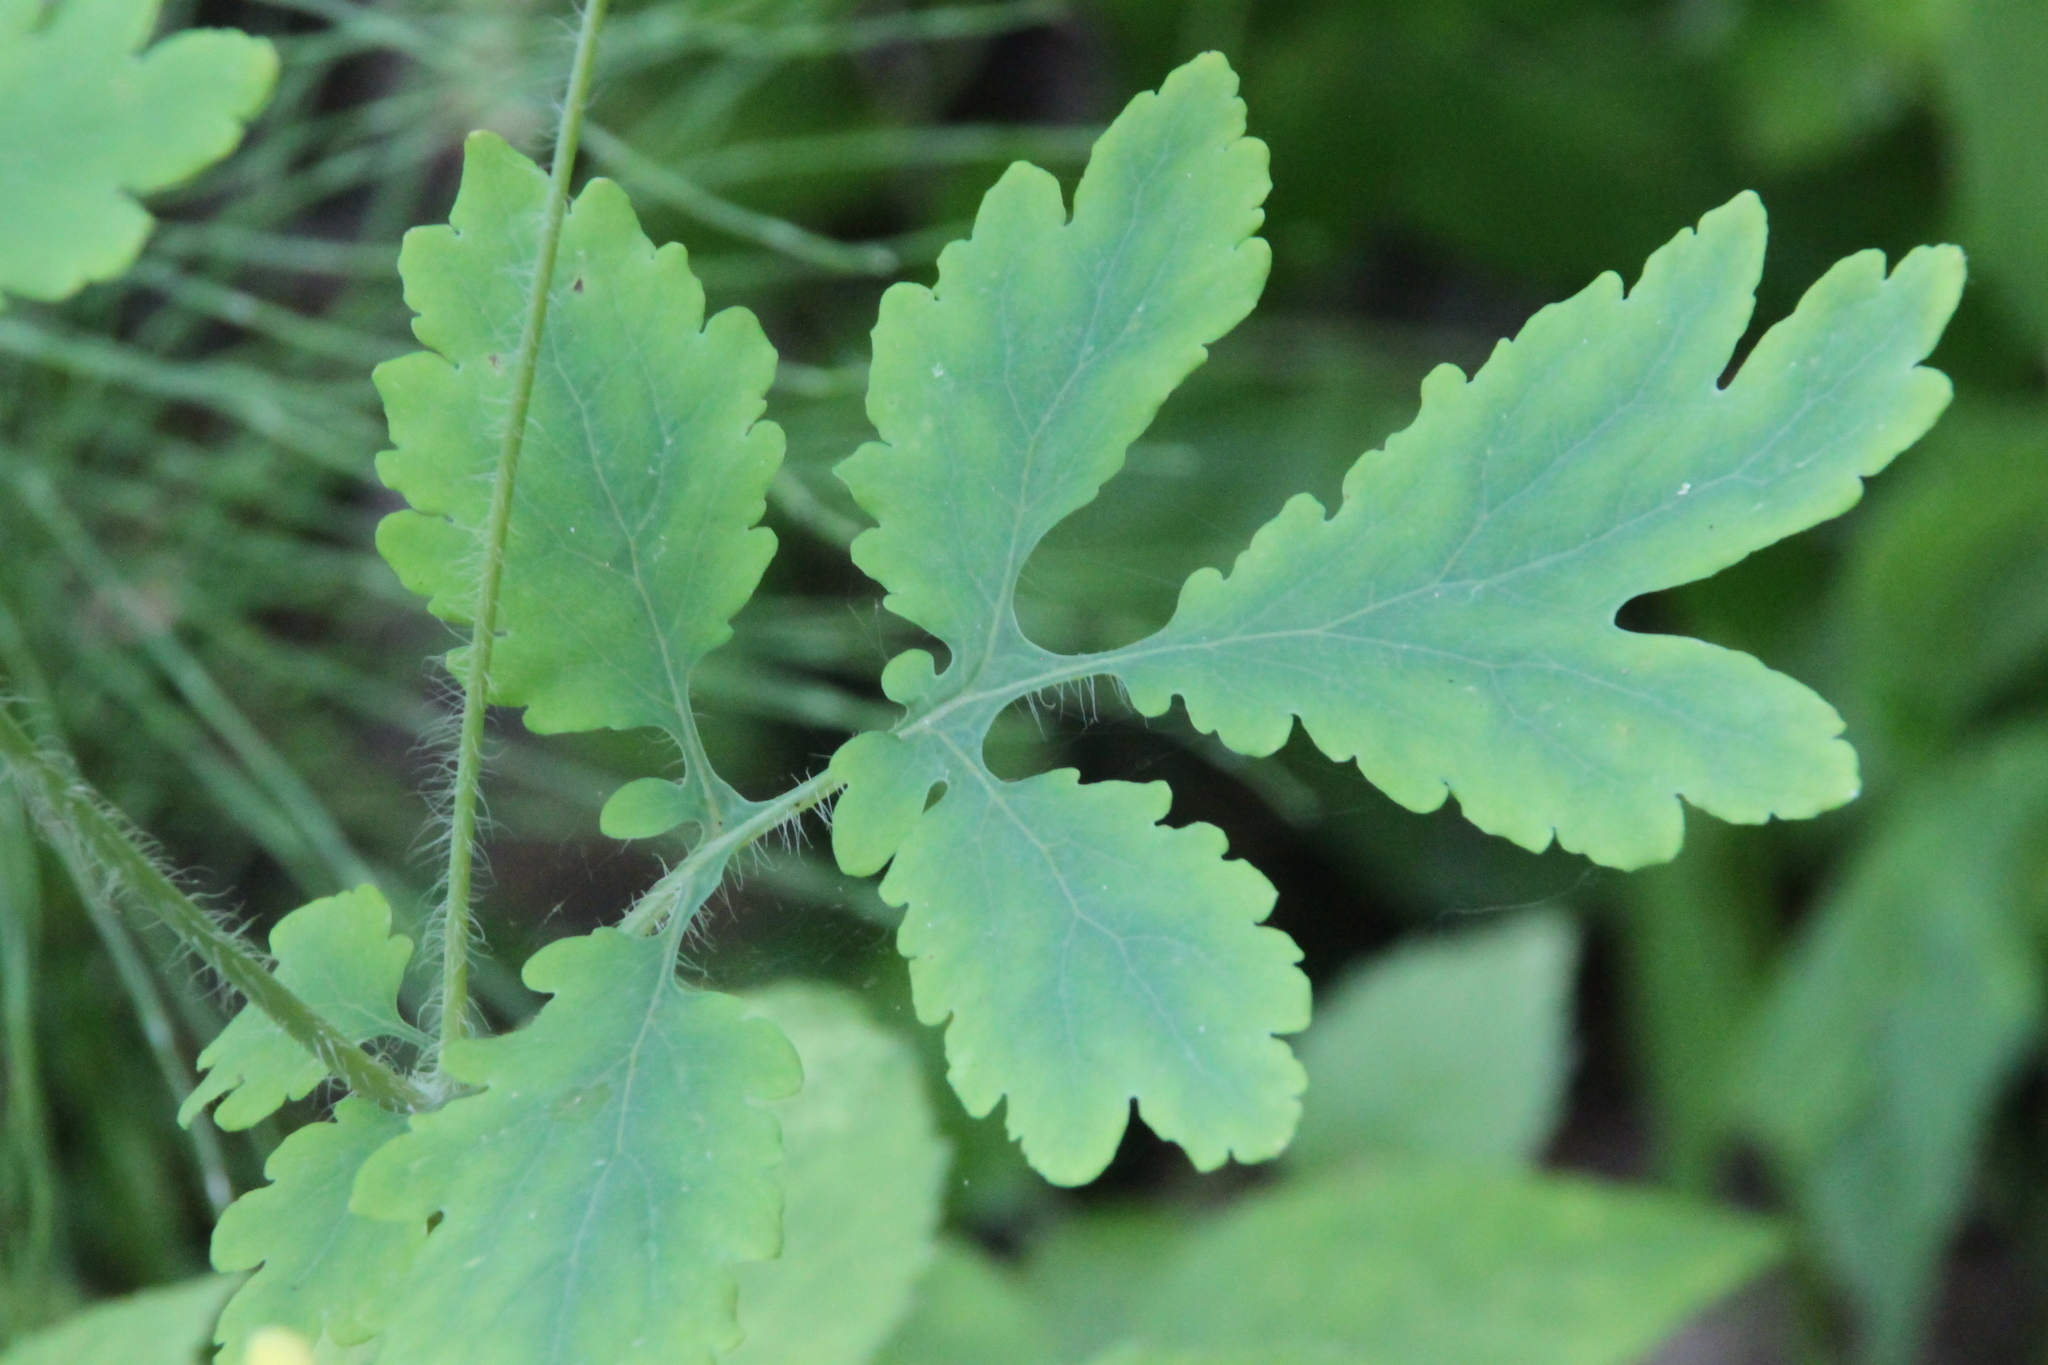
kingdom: Plantae
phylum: Tracheophyta
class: Magnoliopsida
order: Ranunculales
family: Papaveraceae
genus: Chelidonium
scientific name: Chelidonium majus
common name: Greater celandine
